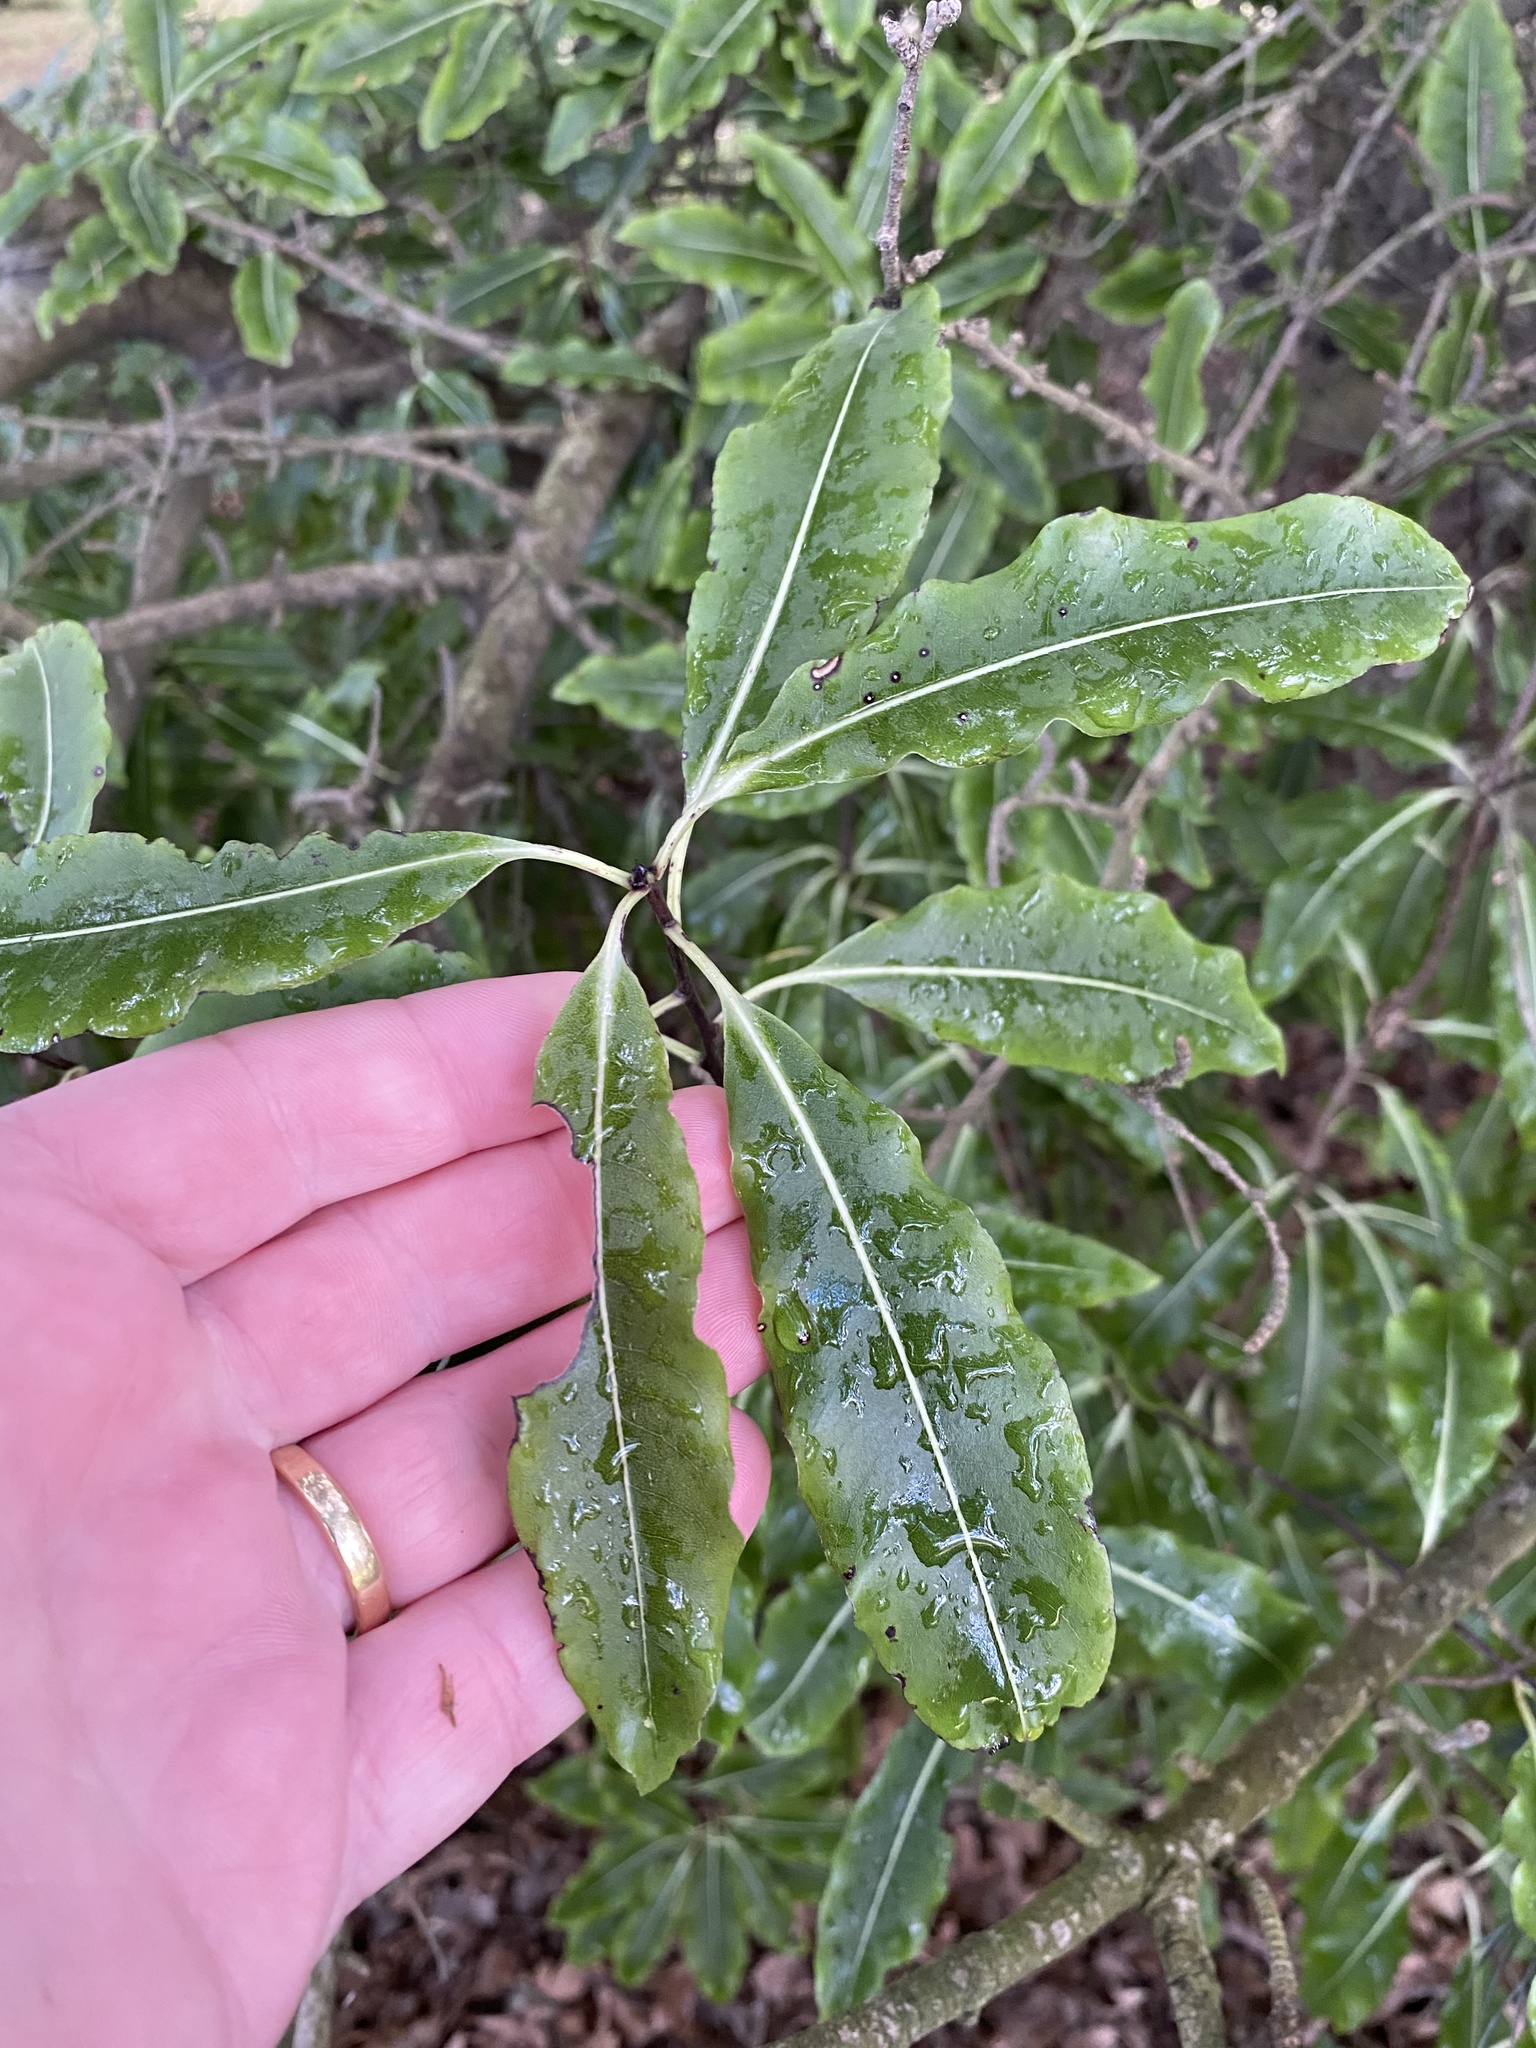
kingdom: Plantae
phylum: Tracheophyta
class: Magnoliopsida
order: Apiales
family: Pittosporaceae
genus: Pittosporum
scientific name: Pittosporum eugenioides
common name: Lemonwood
